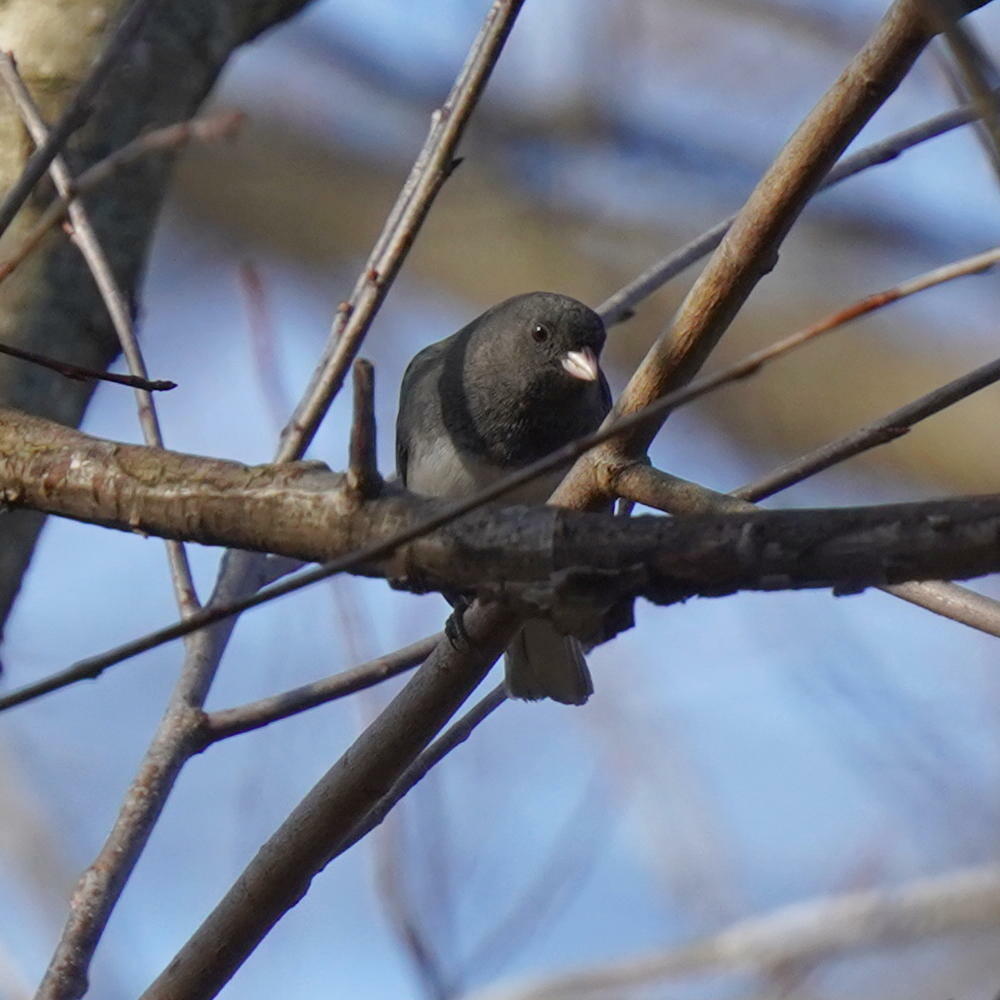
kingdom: Animalia
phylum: Chordata
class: Aves
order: Passeriformes
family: Passerellidae
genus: Junco
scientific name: Junco hyemalis
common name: Dark-eyed junco
